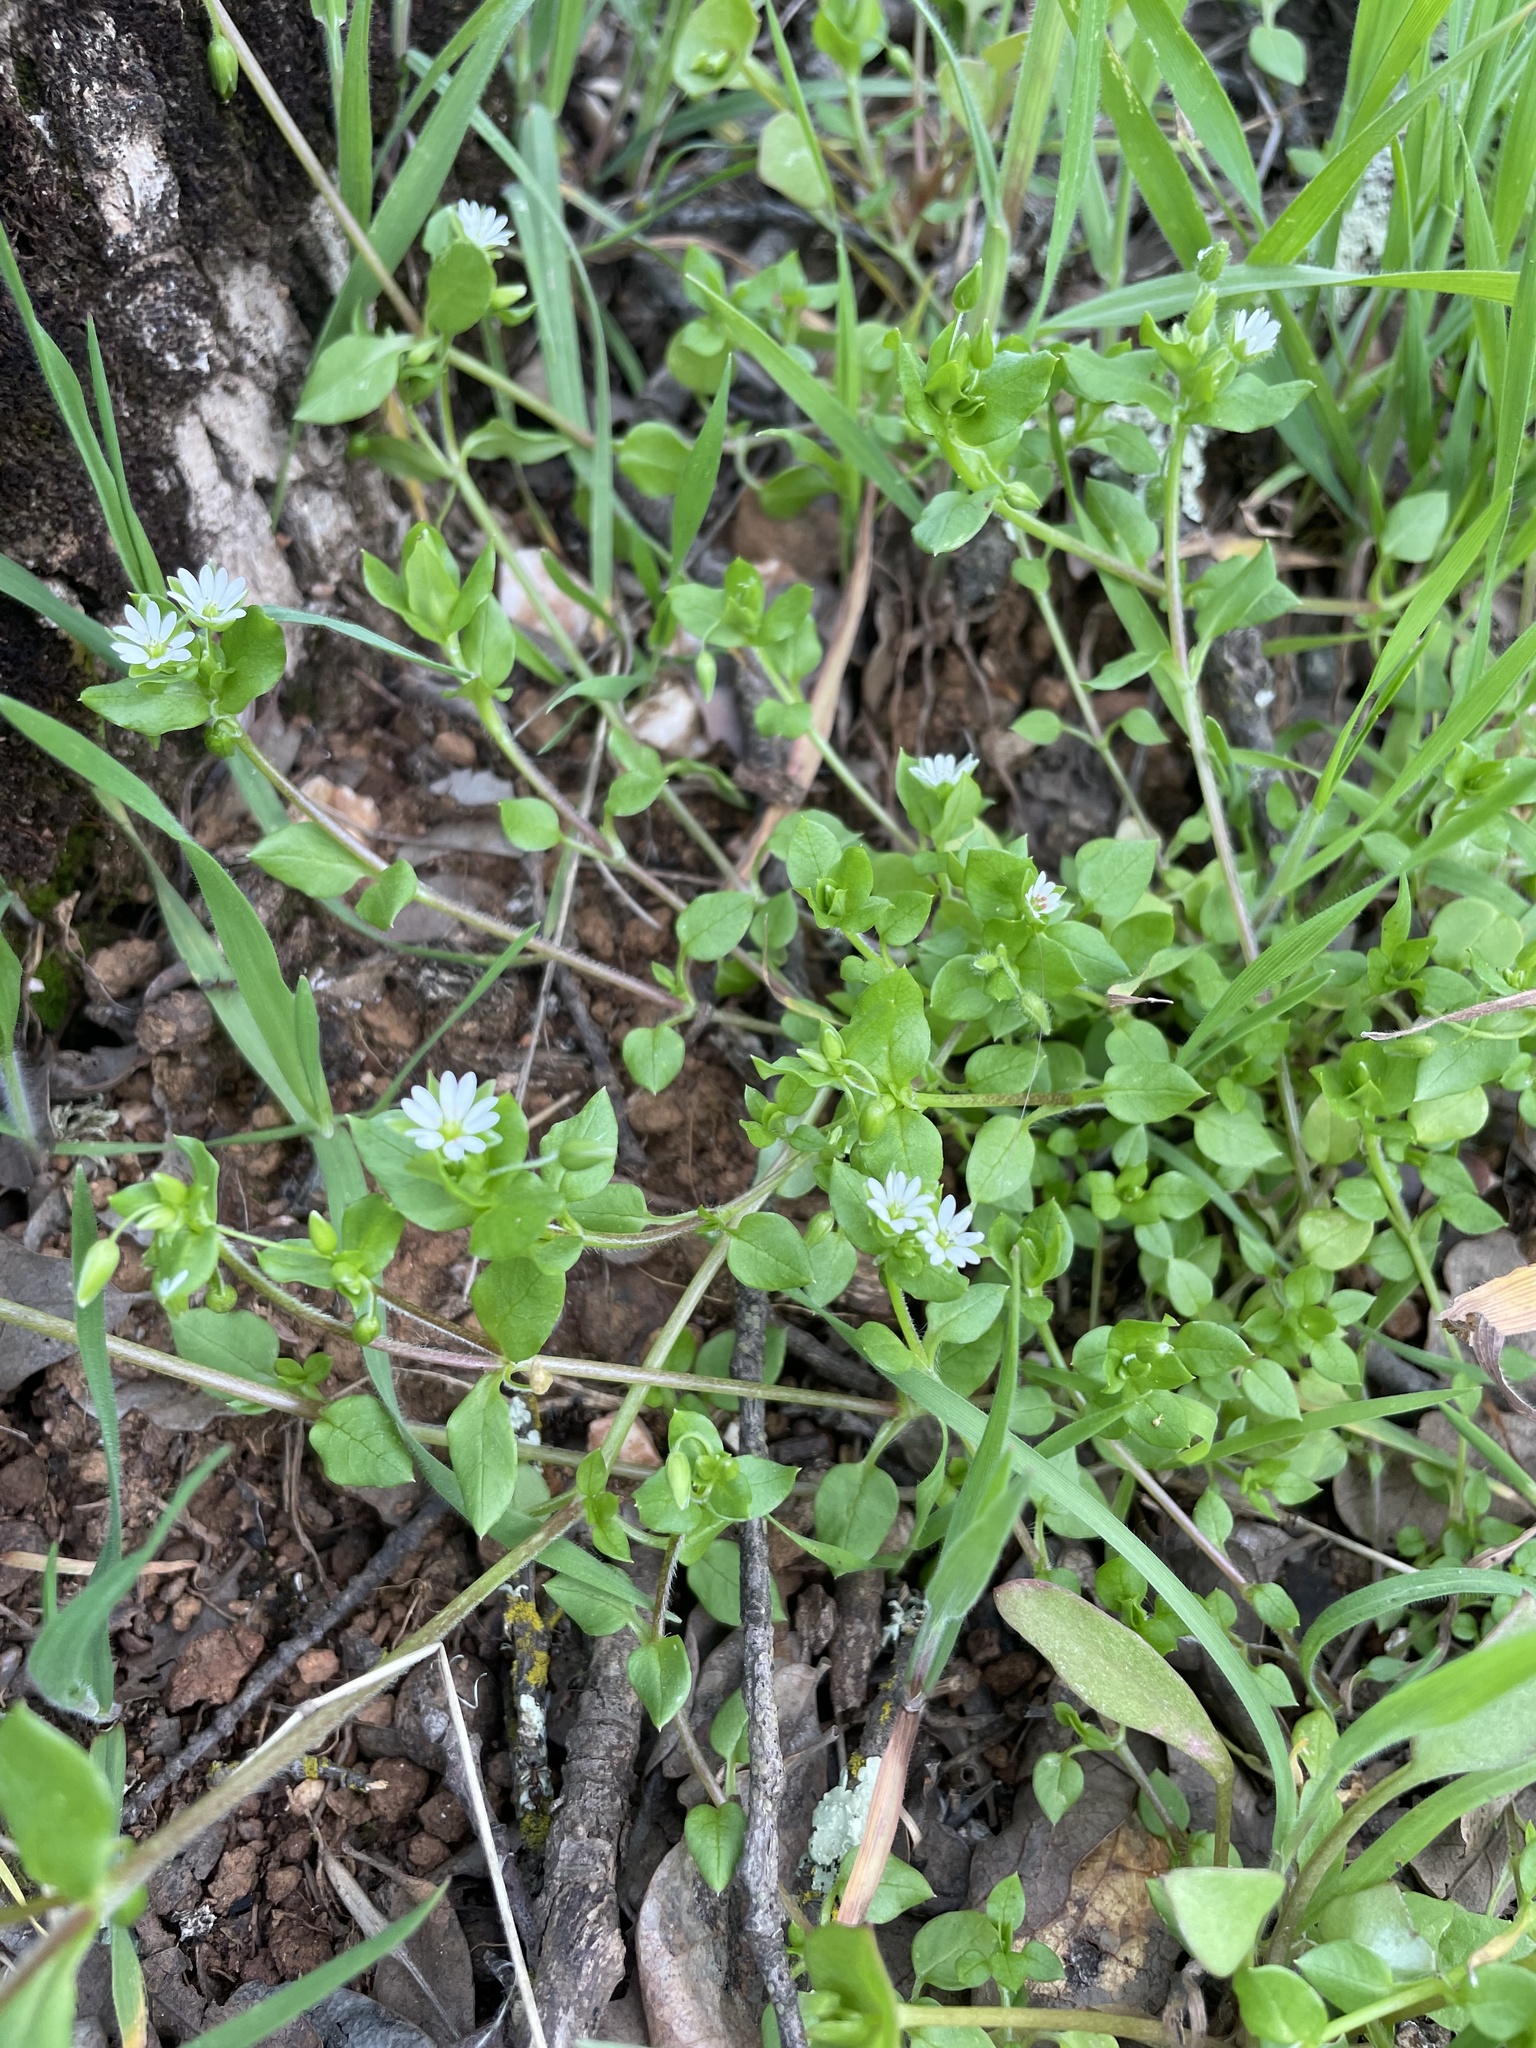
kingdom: Plantae
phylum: Tracheophyta
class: Magnoliopsida
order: Caryophyllales
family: Caryophyllaceae
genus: Stellaria
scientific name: Stellaria media
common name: Common chickweed
